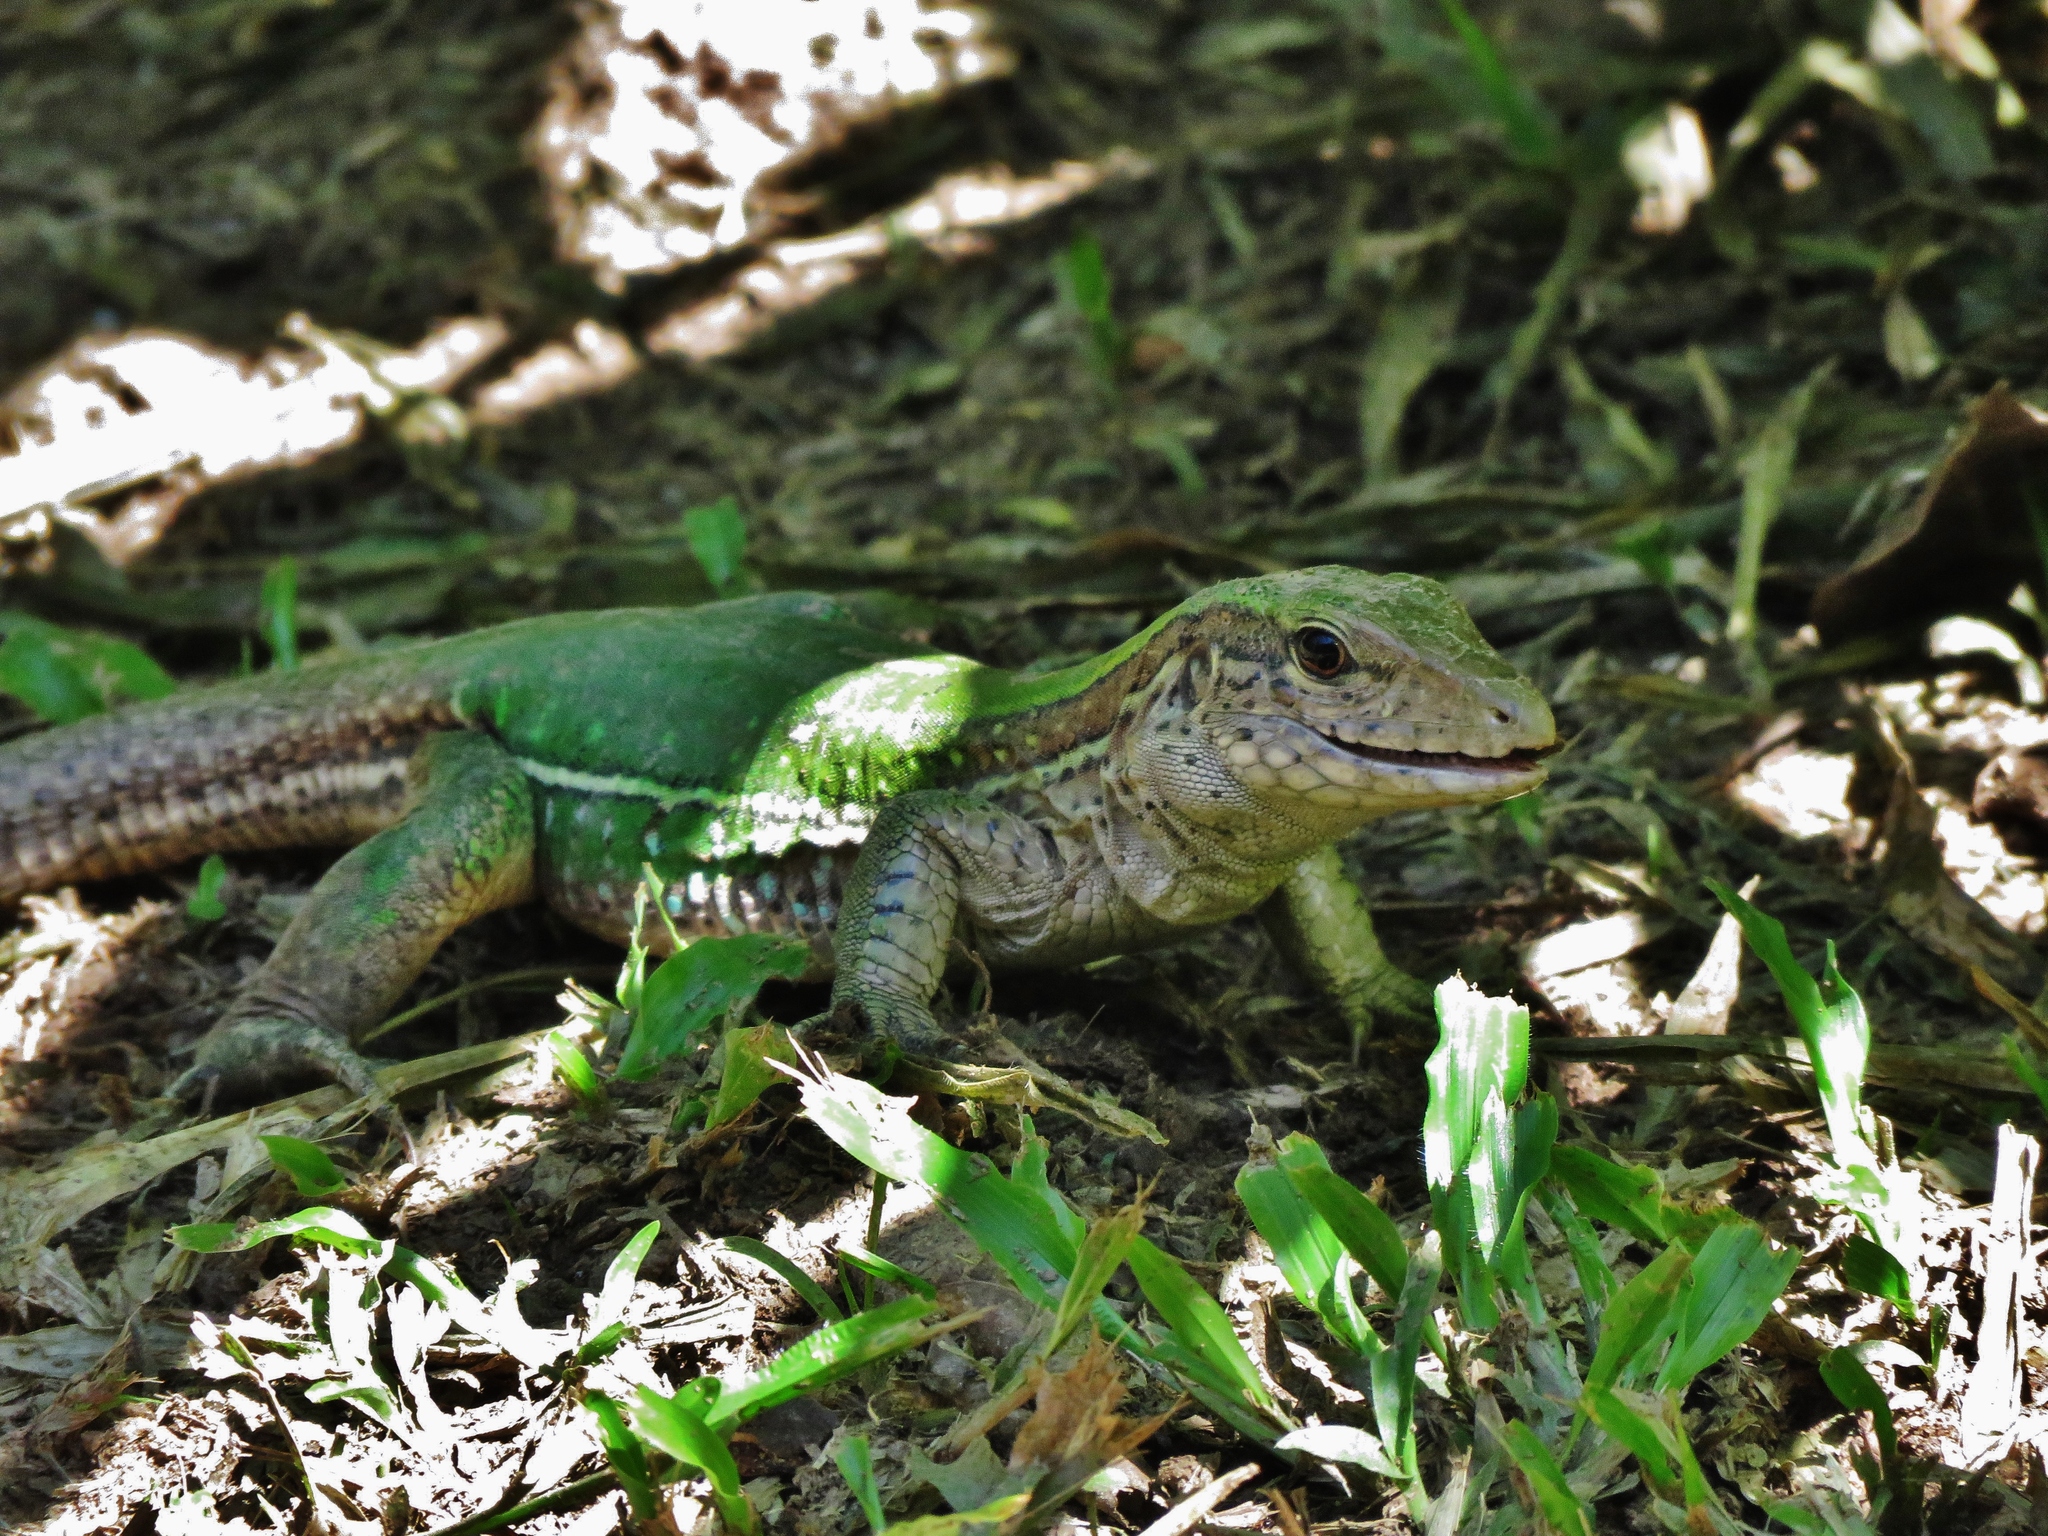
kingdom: Animalia
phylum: Chordata
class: Squamata
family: Teiidae
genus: Ameiva
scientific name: Ameiva ameiva
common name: Giant ameiva
